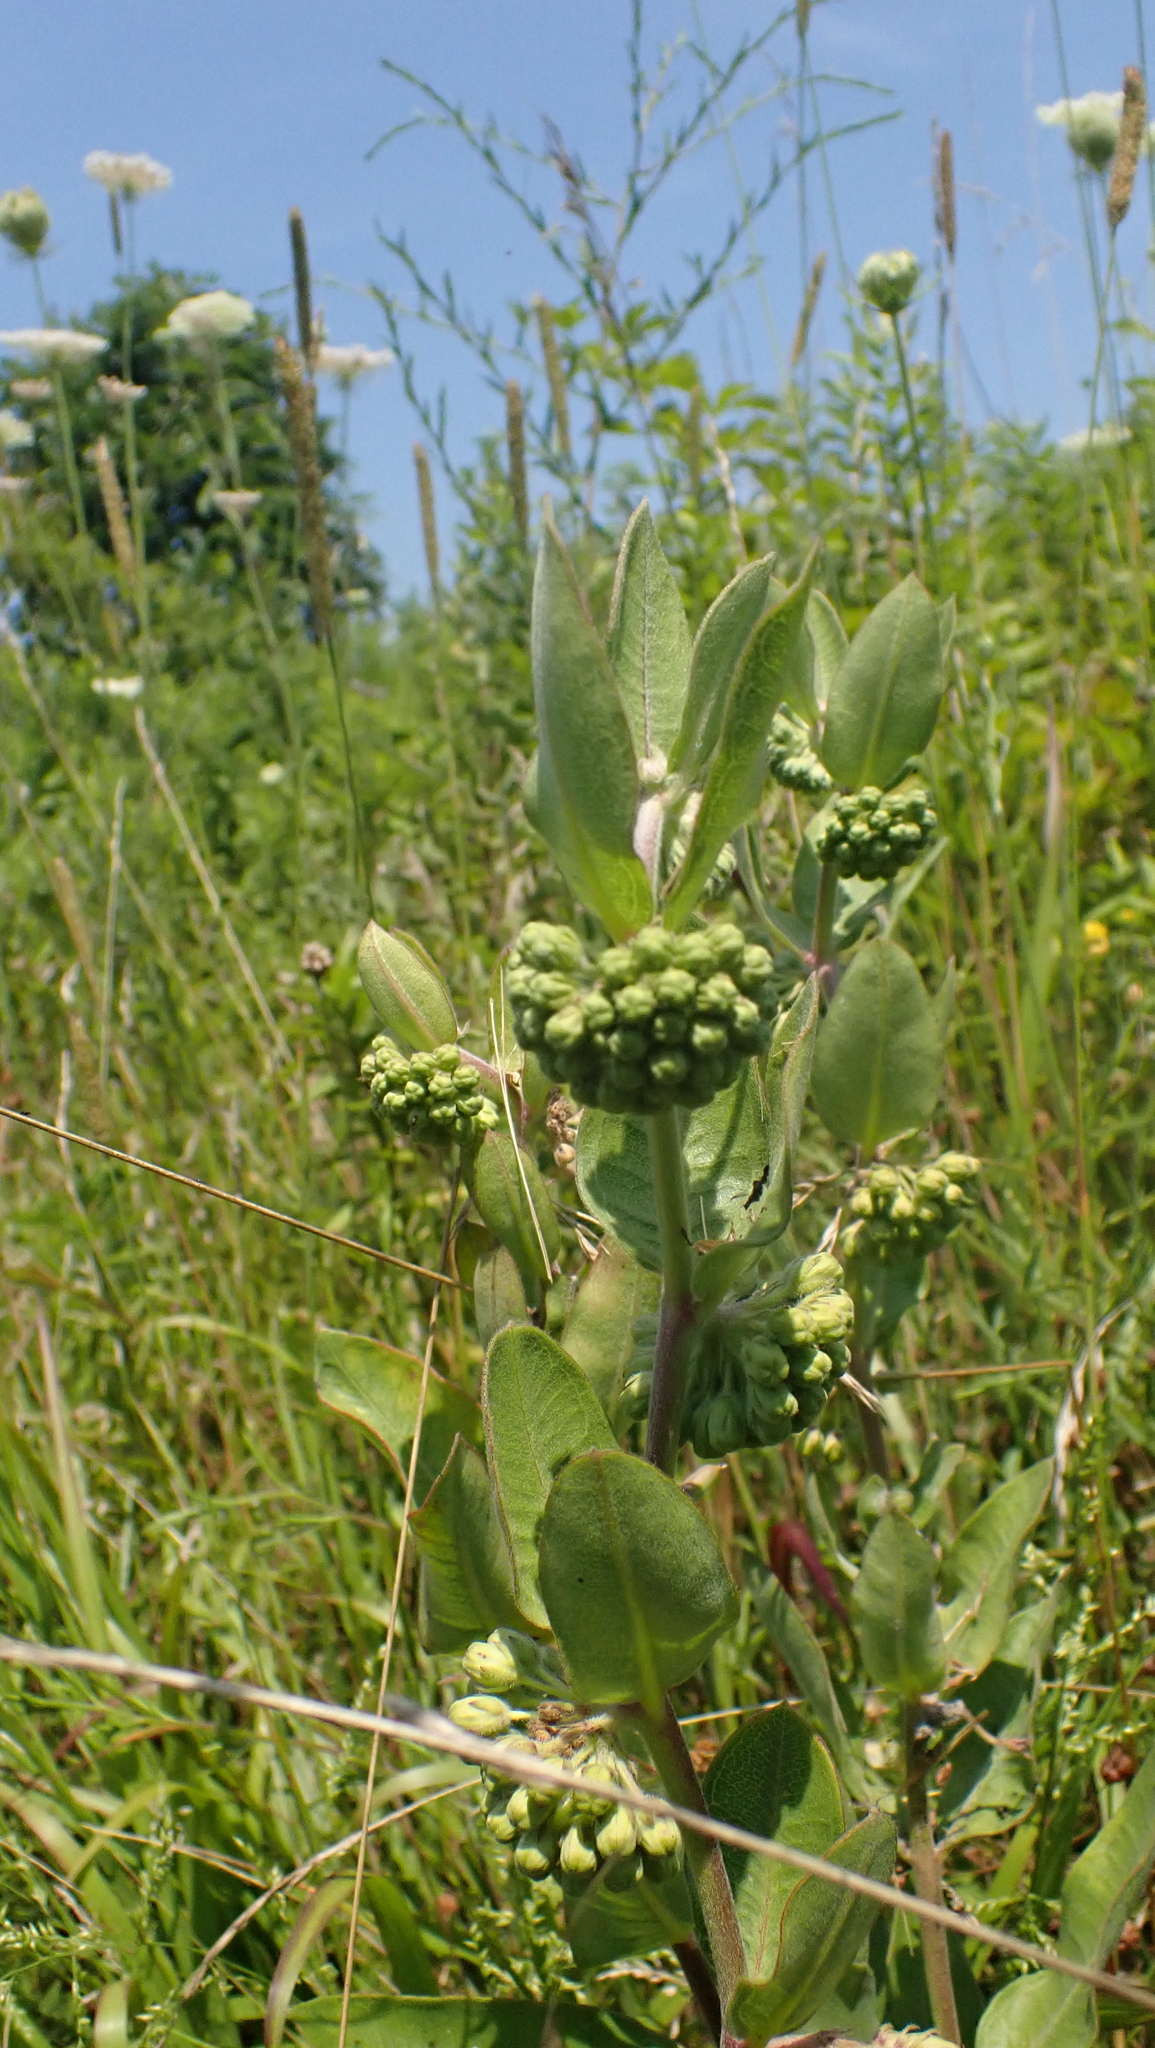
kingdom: Plantae
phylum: Tracheophyta
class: Magnoliopsida
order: Gentianales
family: Apocynaceae
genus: Asclepias
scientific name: Asclepias viridiflora
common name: Green comet milkweed
